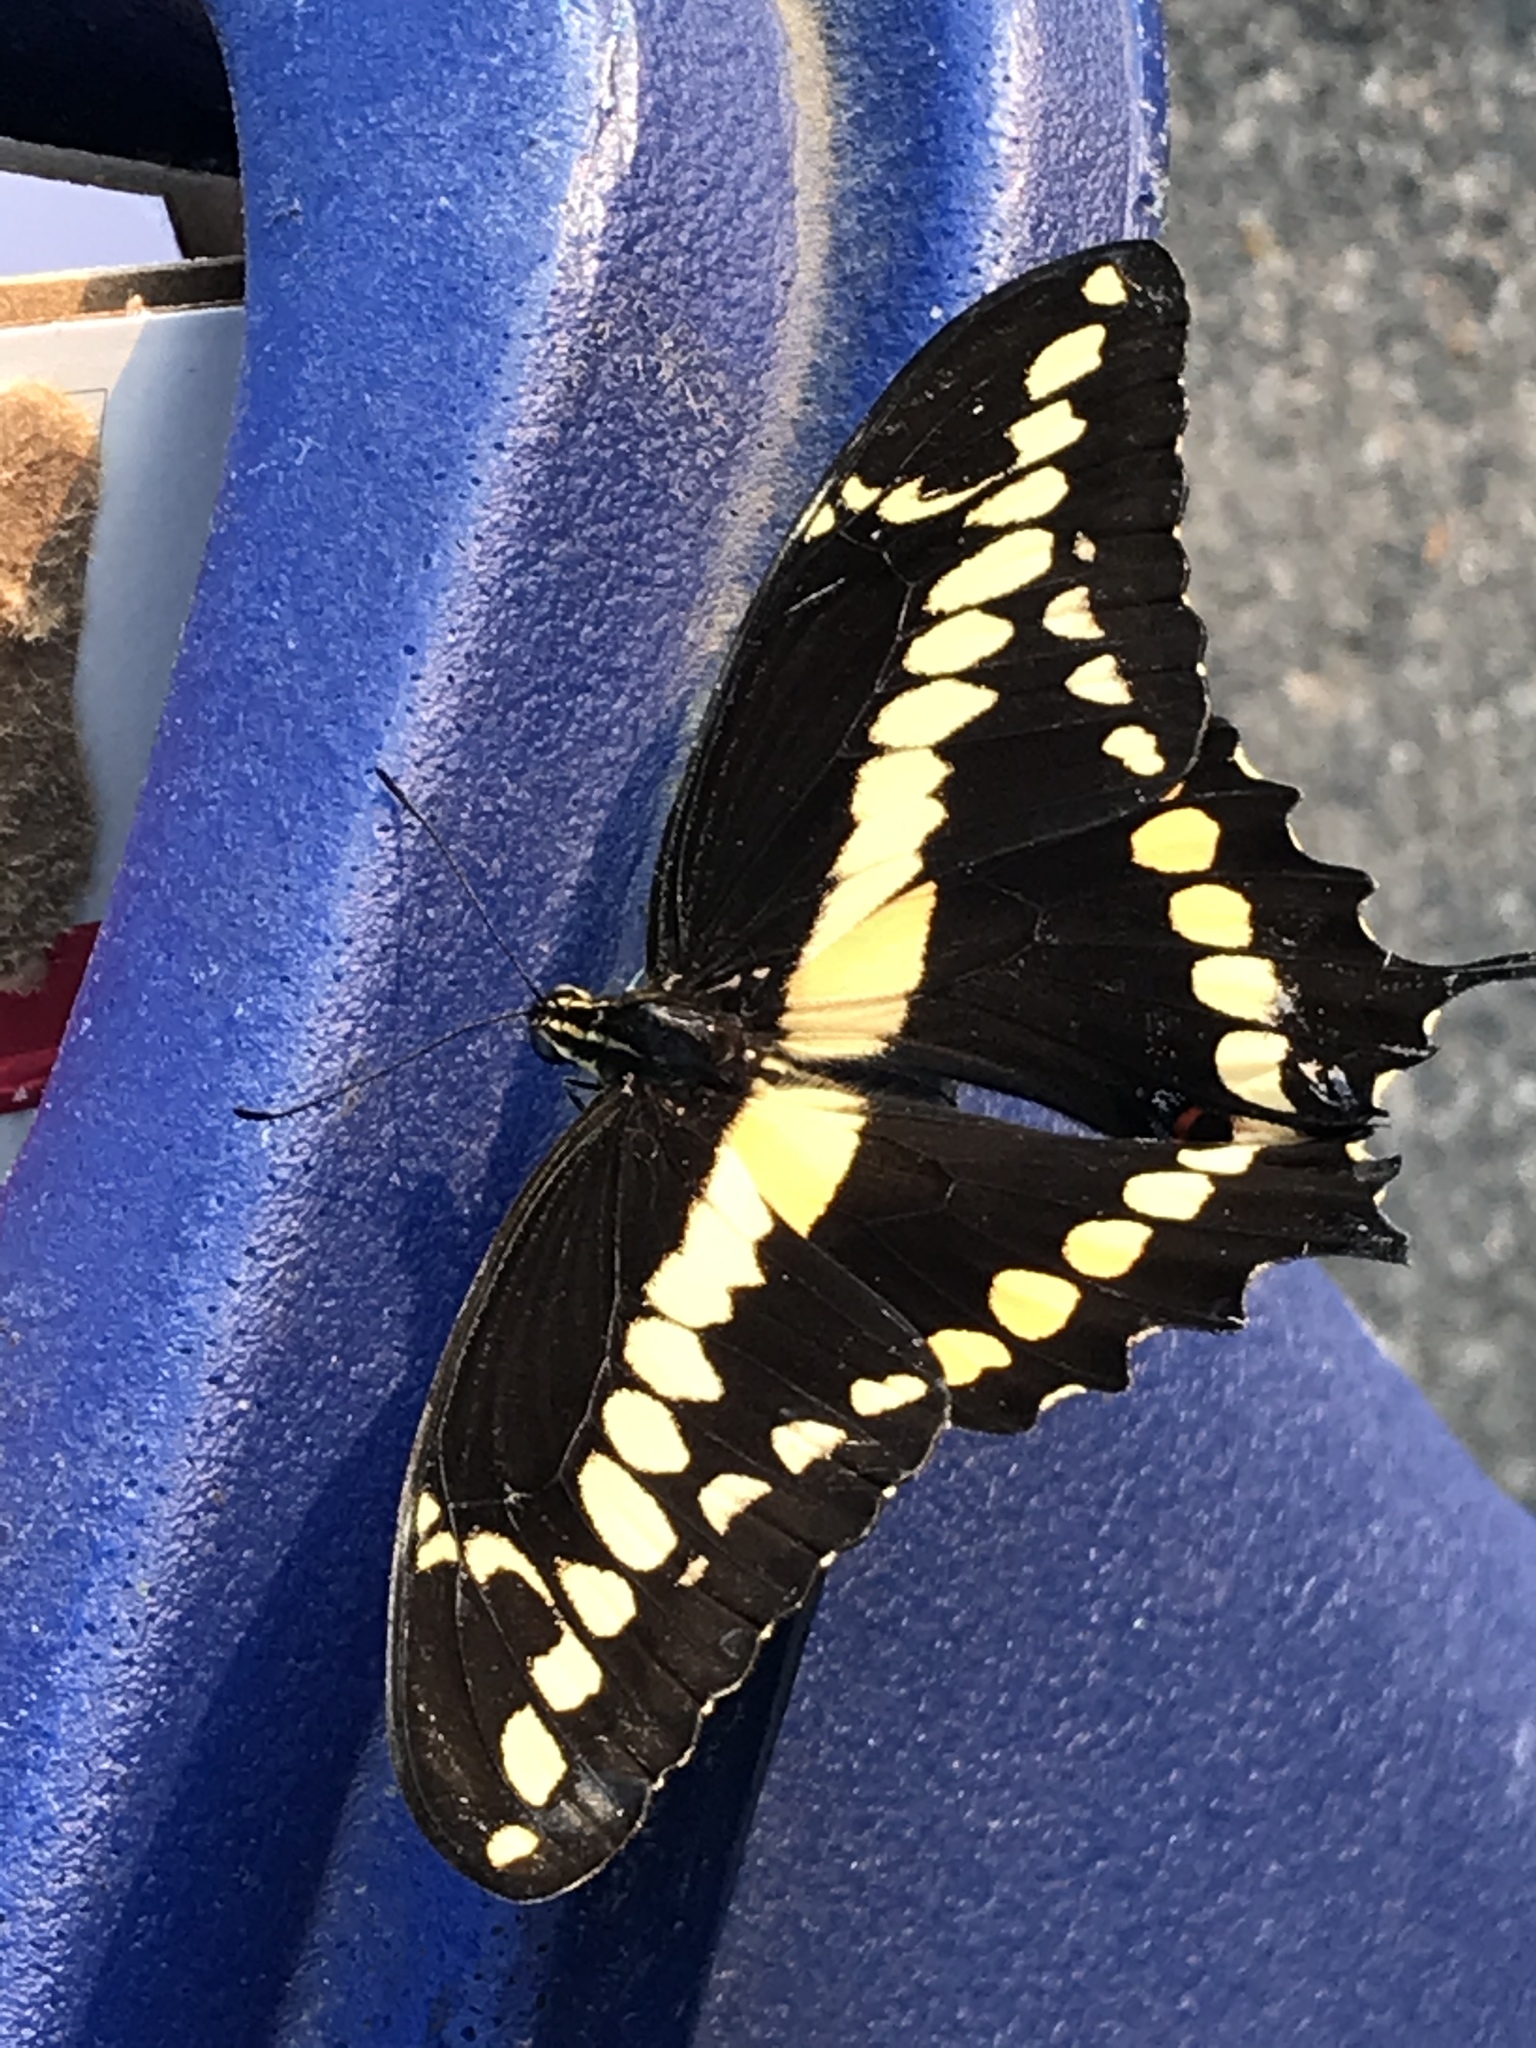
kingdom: Animalia
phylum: Arthropoda
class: Insecta
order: Lepidoptera
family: Papilionidae
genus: Papilio
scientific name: Papilio rumiko
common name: Western giant swallowtail
